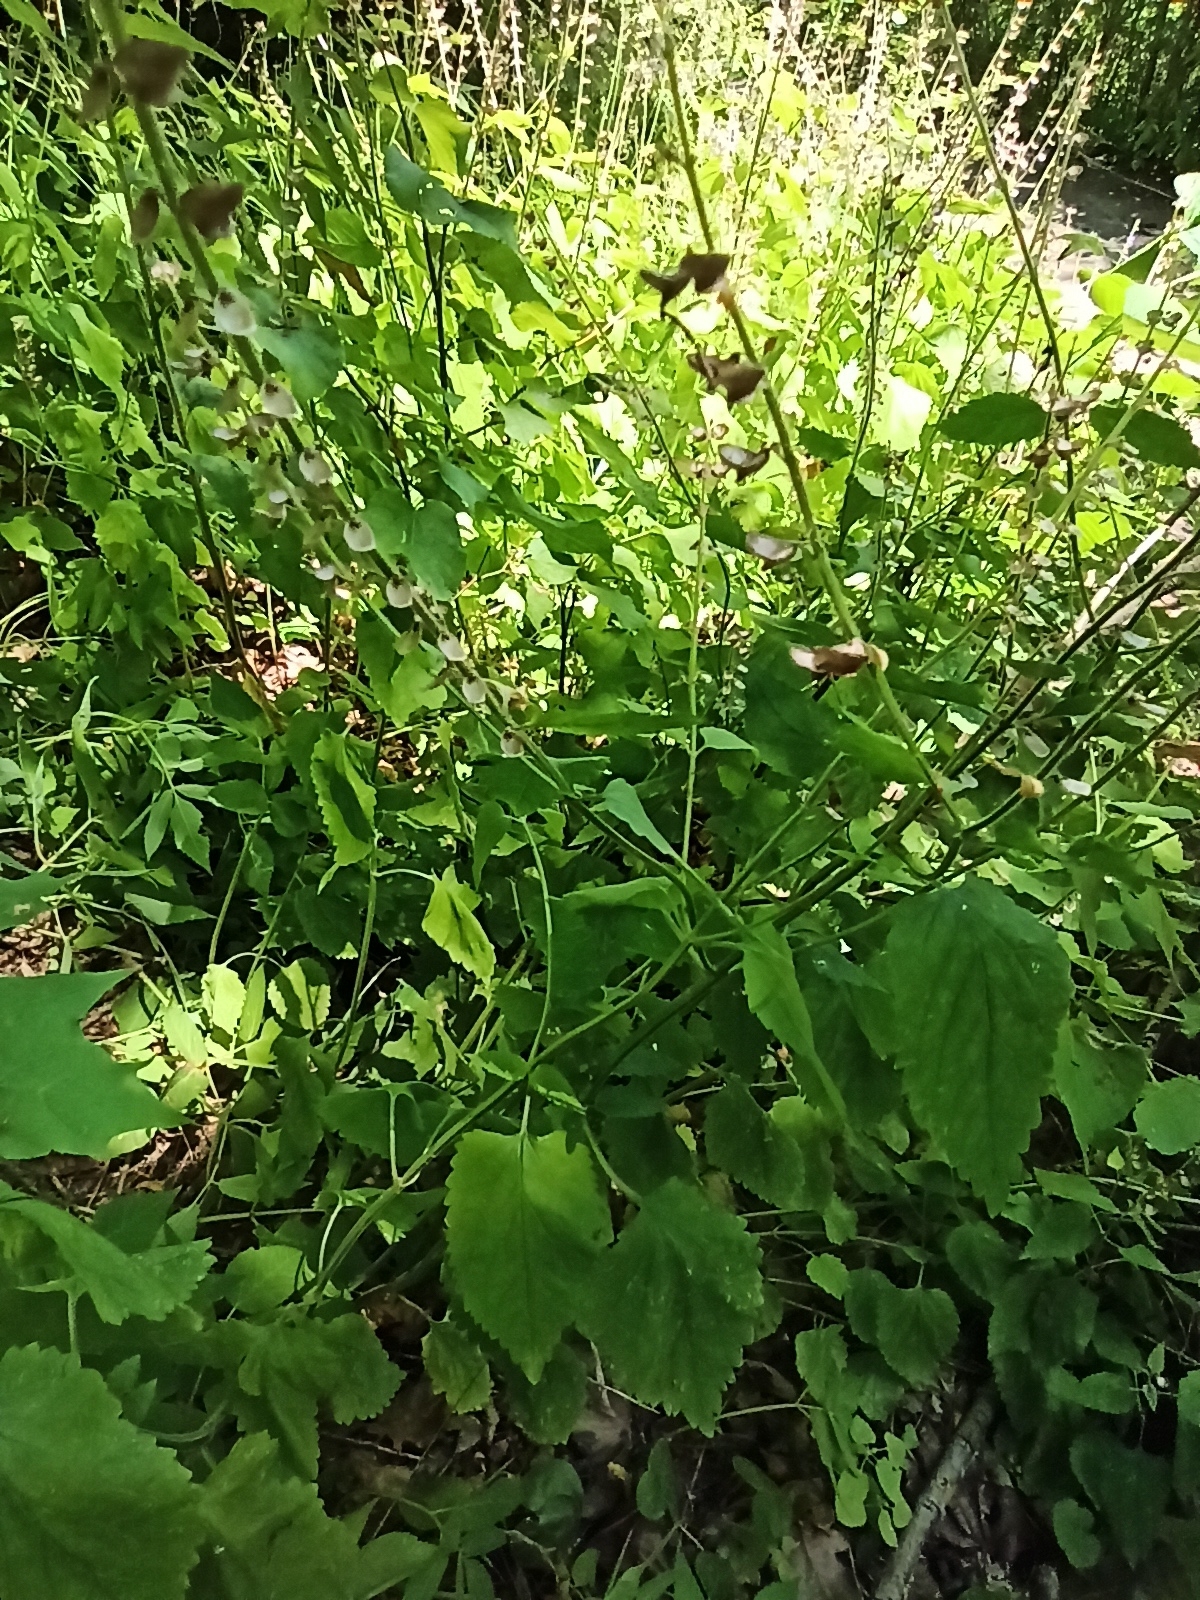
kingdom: Plantae
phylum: Tracheophyta
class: Magnoliopsida
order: Lamiales
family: Lamiaceae
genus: Scutellaria
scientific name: Scutellaria altissima
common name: Somerset skullcap
